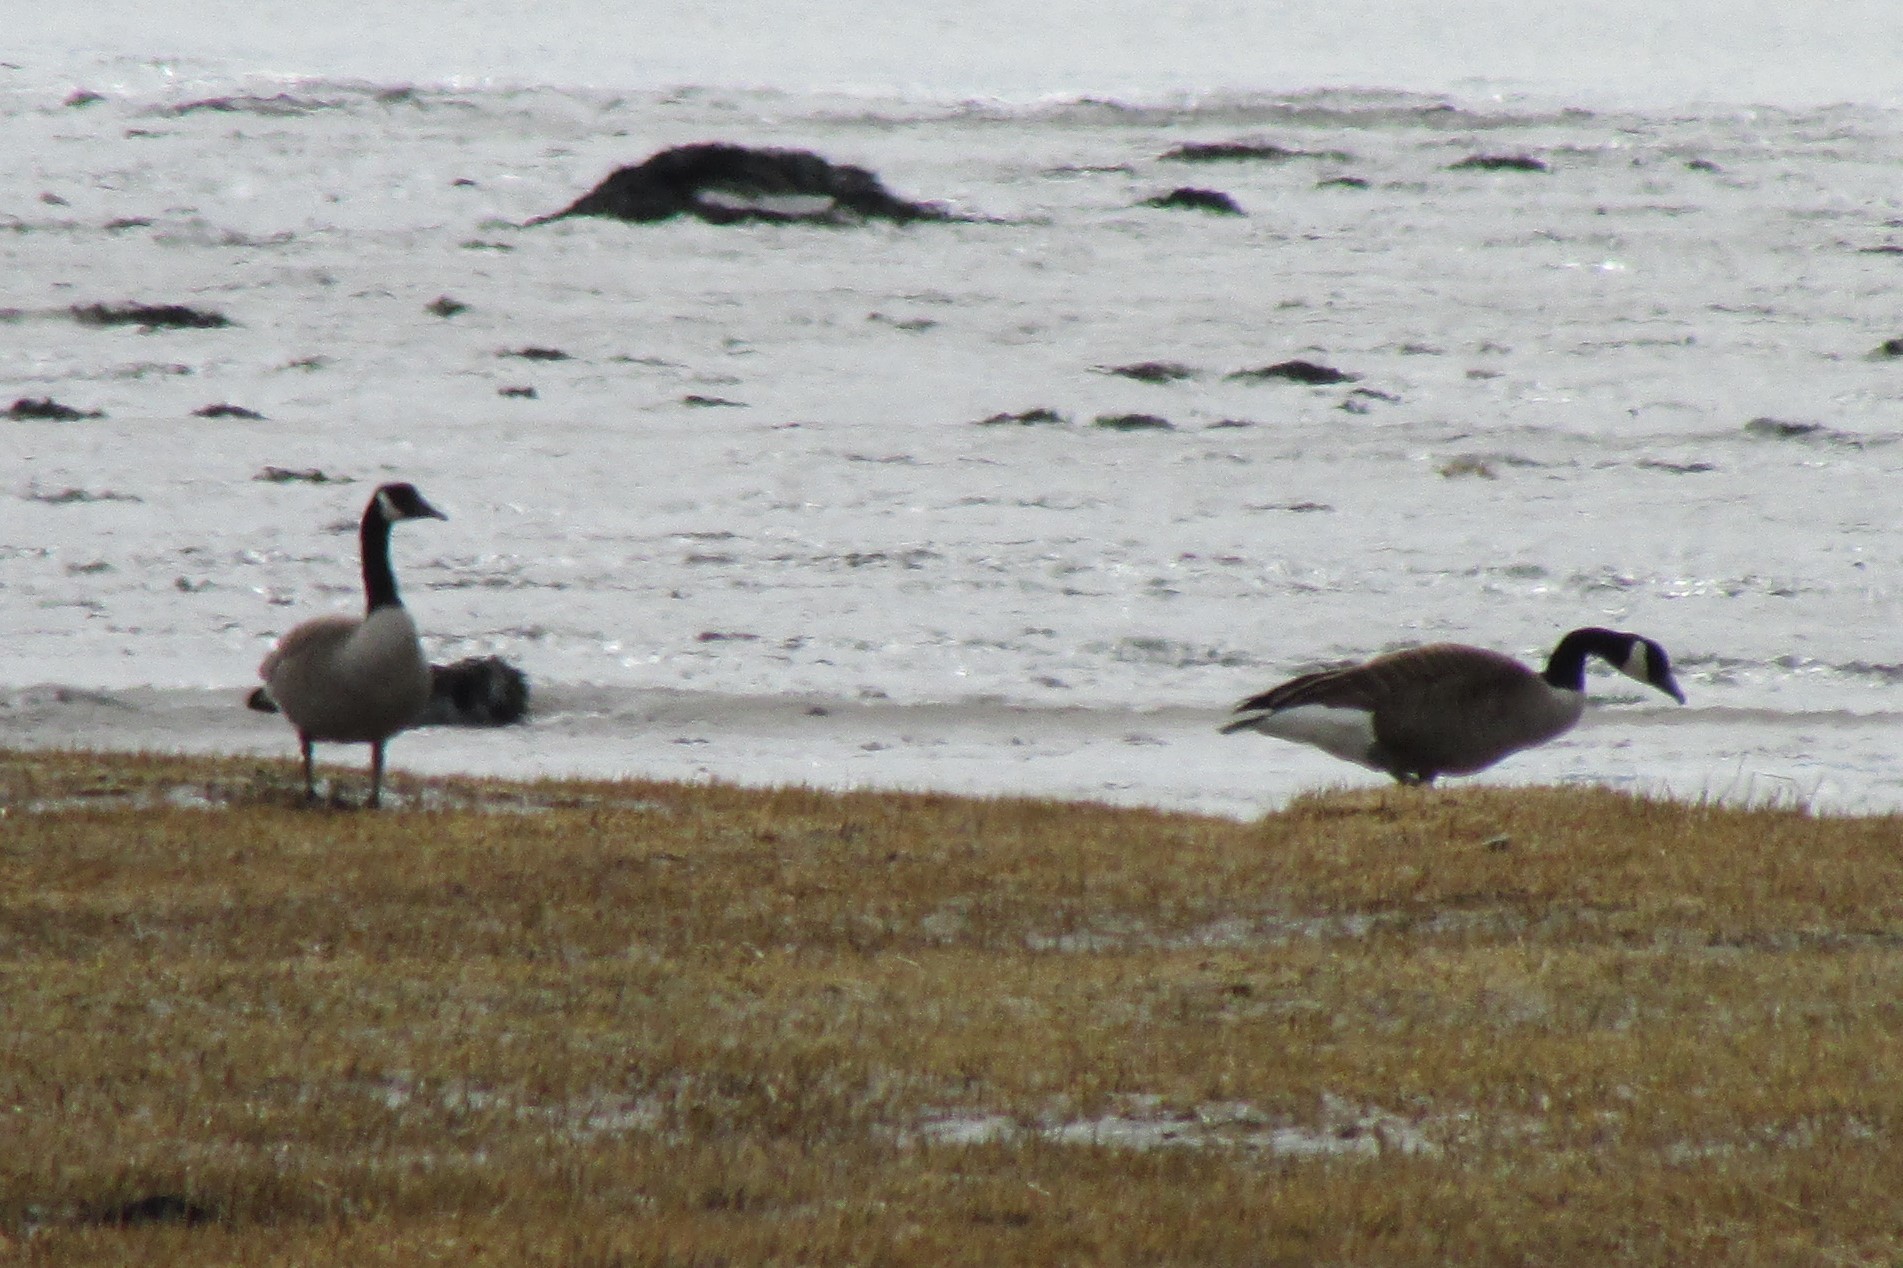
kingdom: Animalia
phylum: Chordata
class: Aves
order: Anseriformes
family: Anatidae
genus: Branta
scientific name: Branta canadensis
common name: Canada goose
